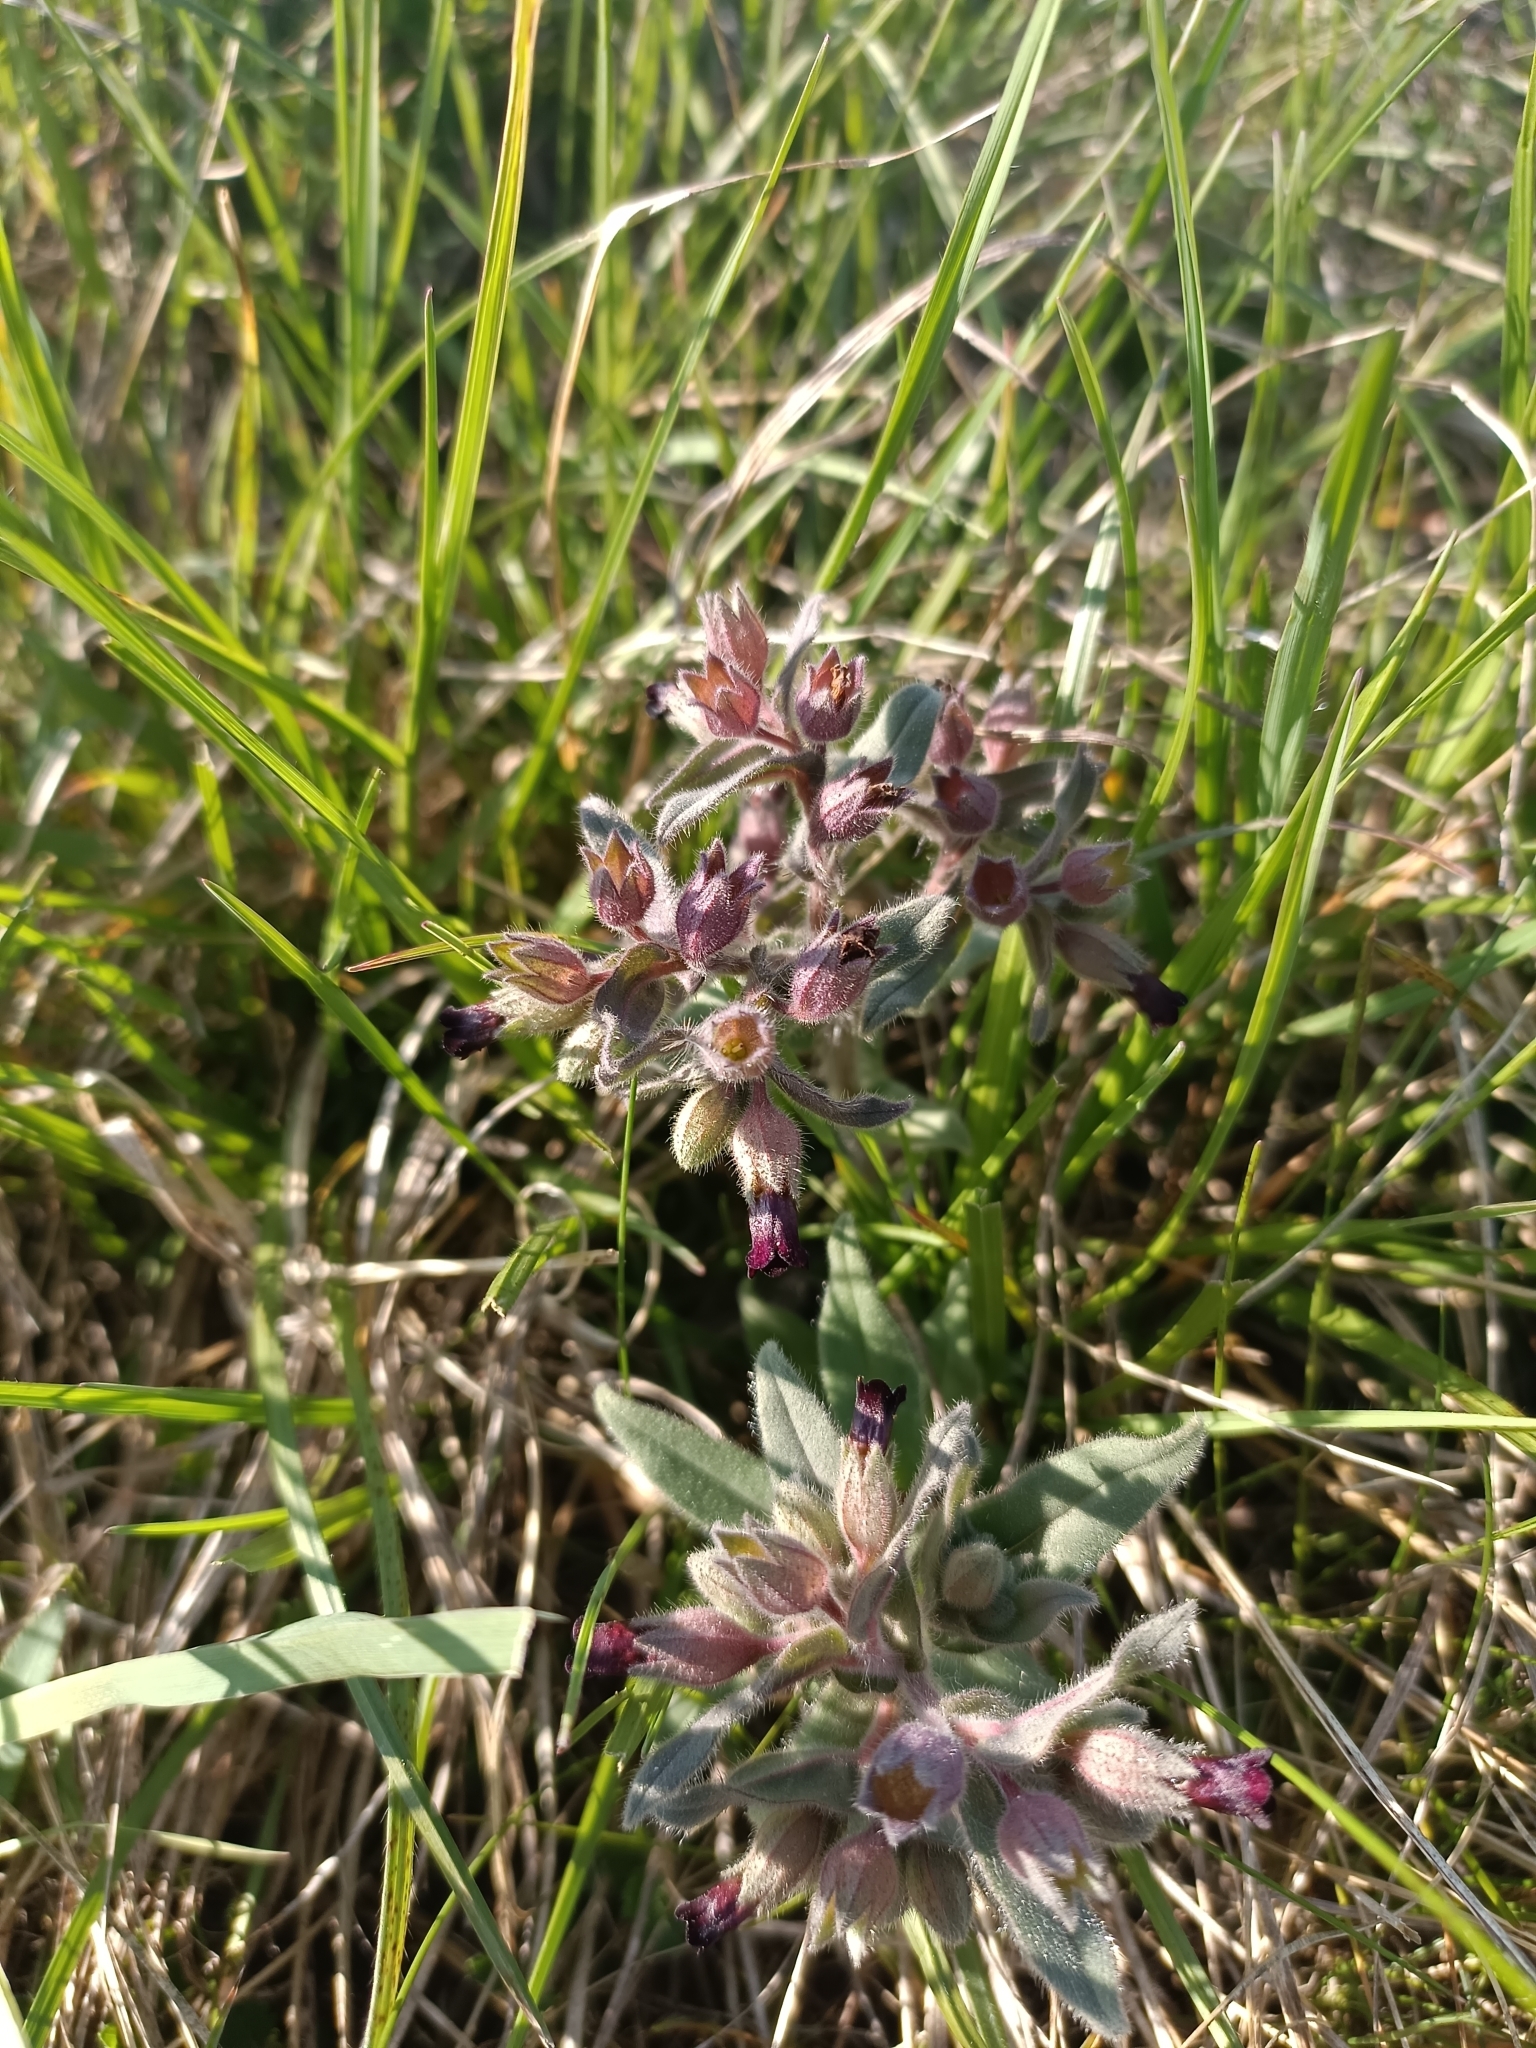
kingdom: Plantae
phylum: Tracheophyta
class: Magnoliopsida
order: Boraginales
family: Boraginaceae
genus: Nonea
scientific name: Nonea pulla
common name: Brown nonea
